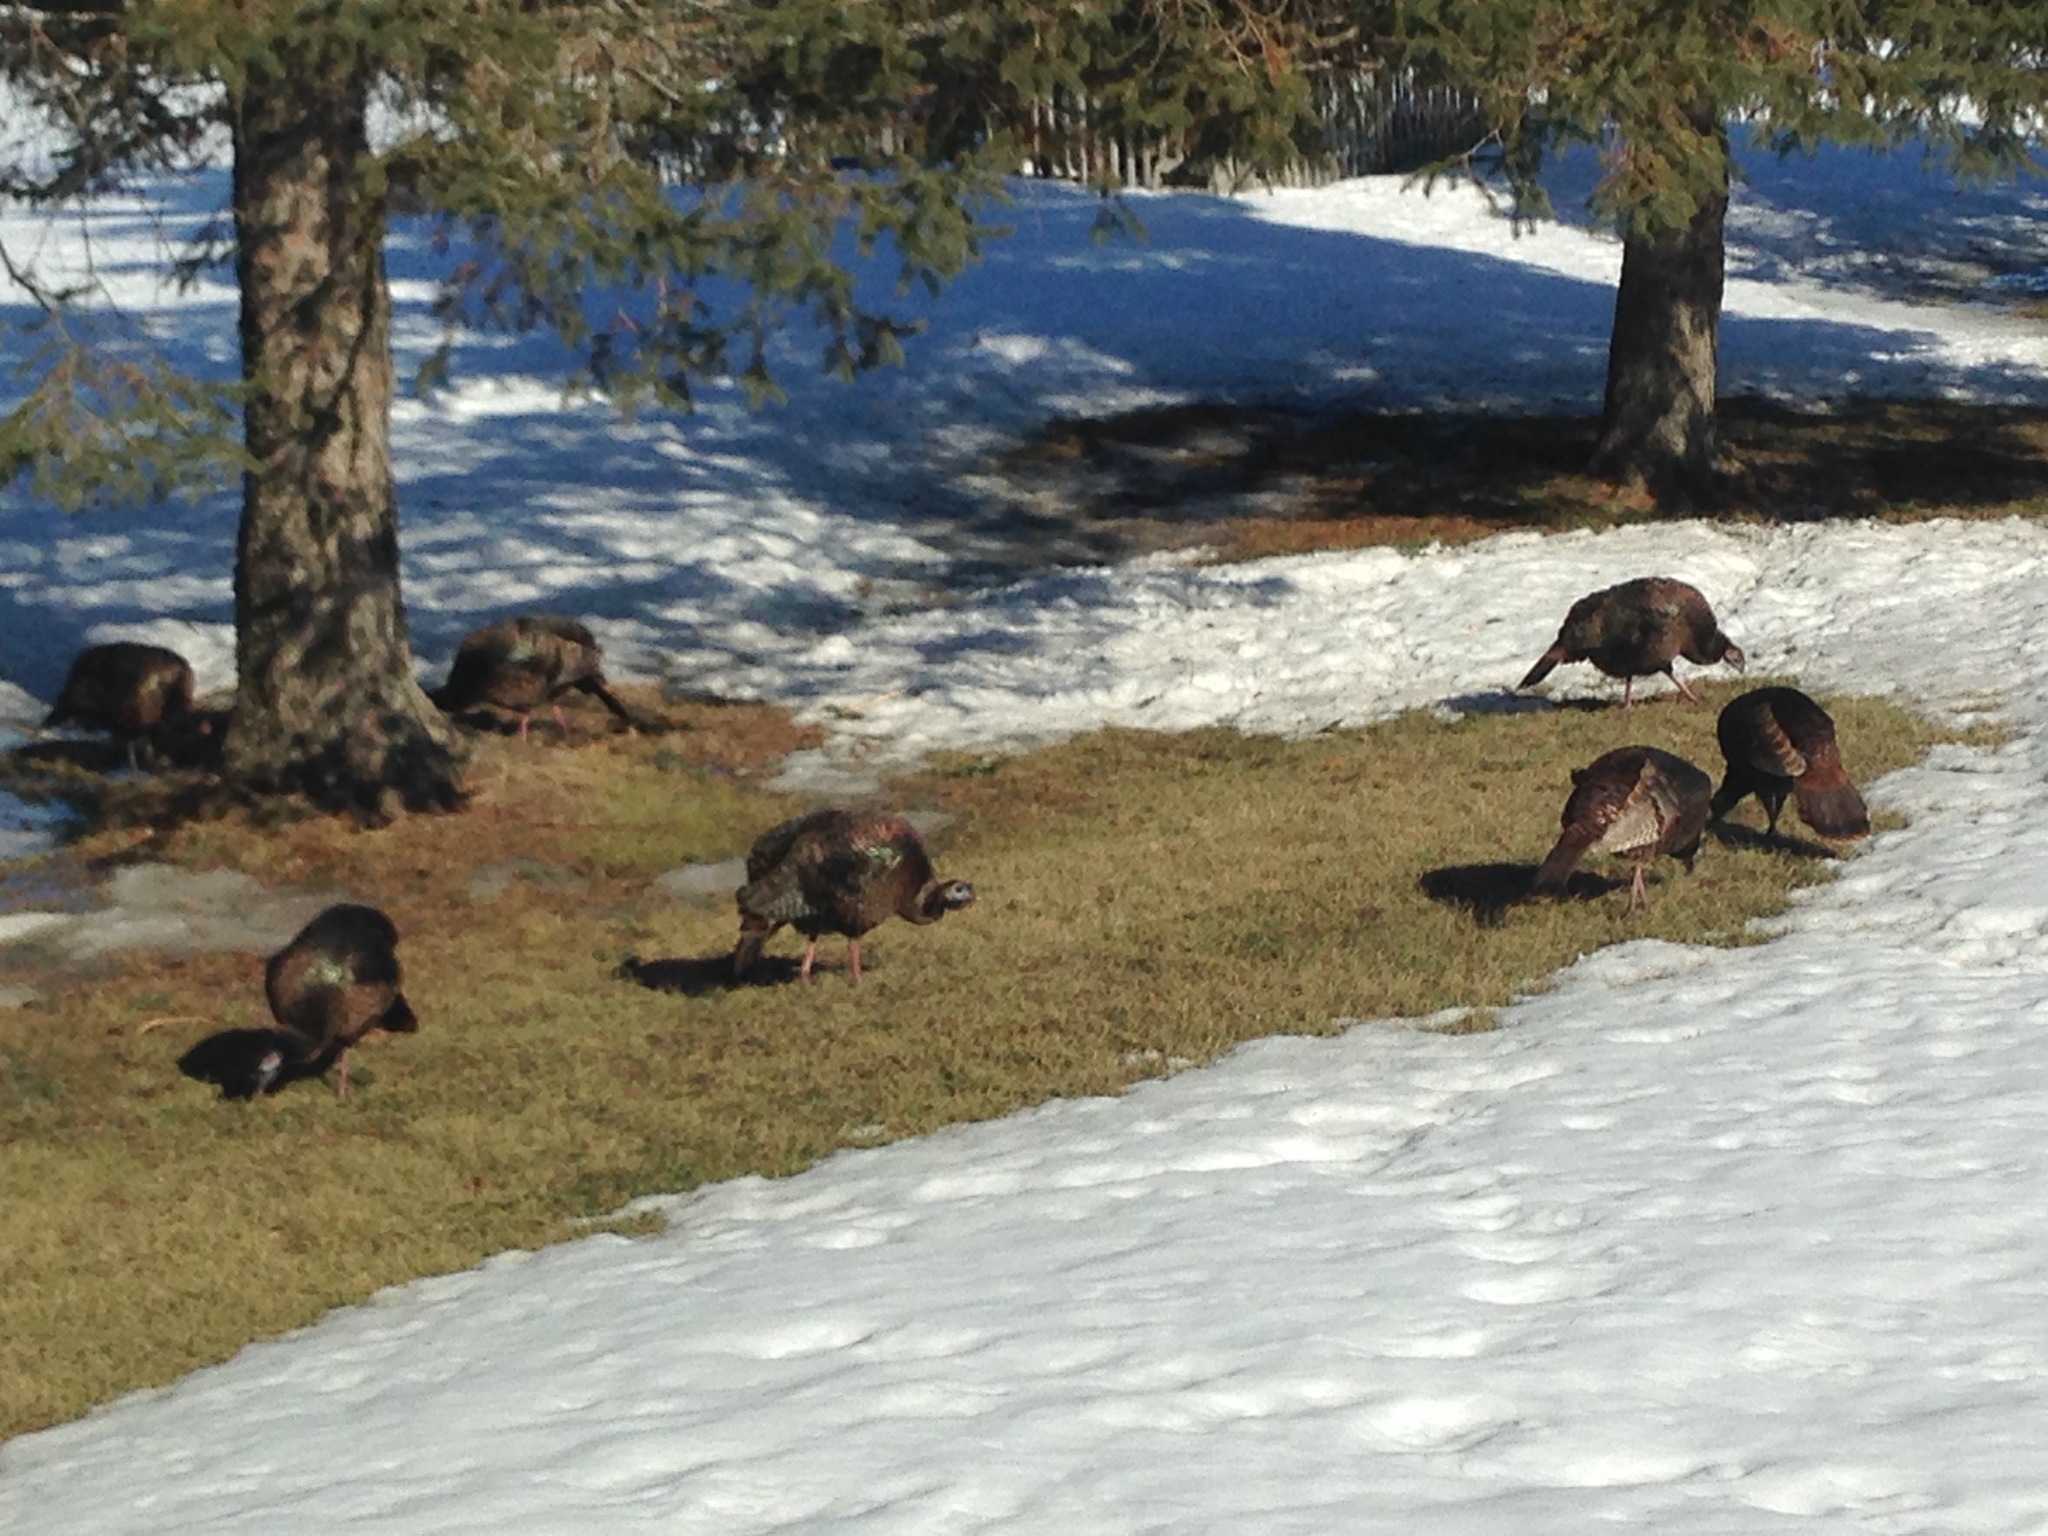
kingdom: Animalia
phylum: Chordata
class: Aves
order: Galliformes
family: Phasianidae
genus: Meleagris
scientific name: Meleagris gallopavo
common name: Wild turkey
